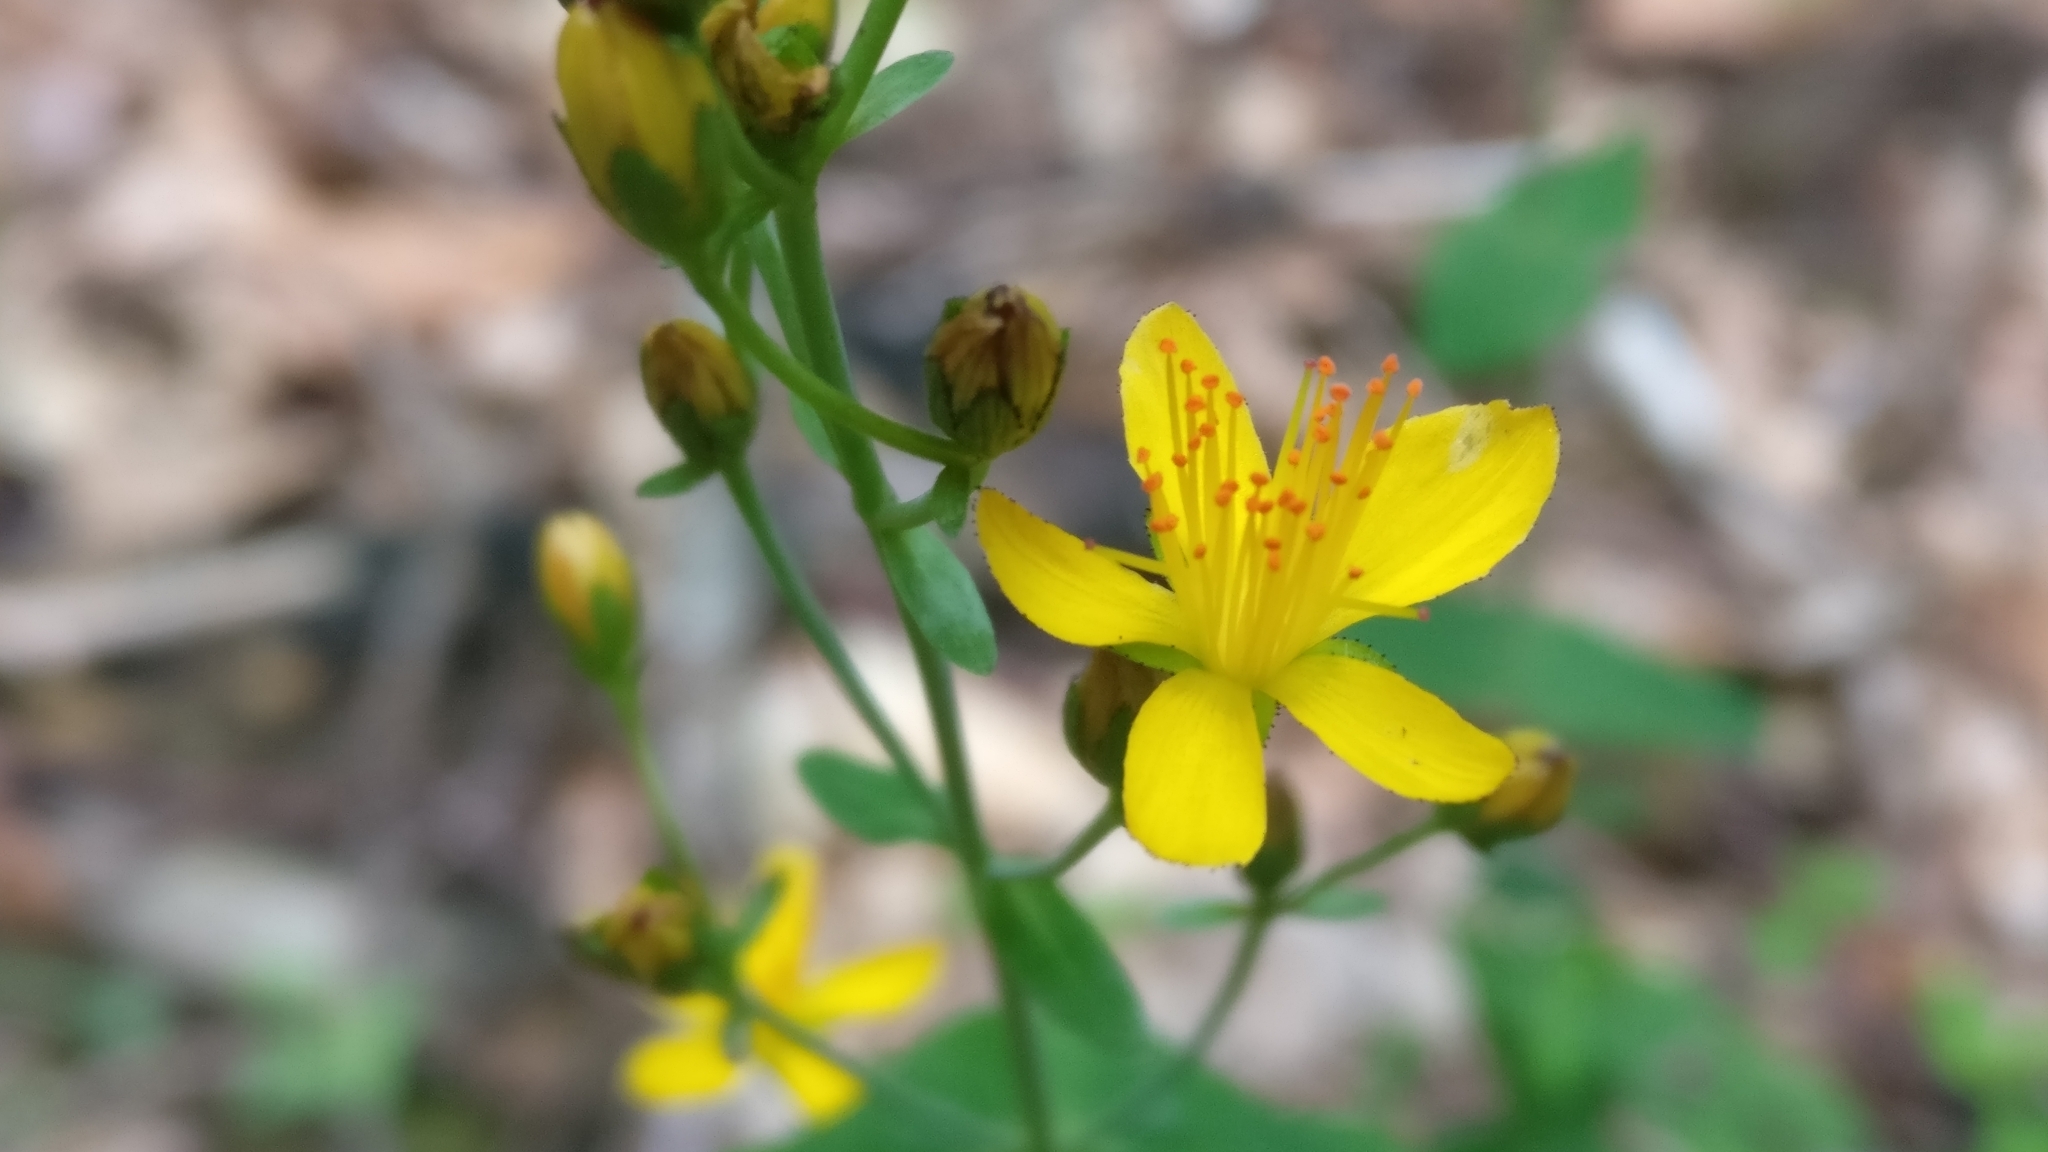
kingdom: Plantae
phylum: Tracheophyta
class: Magnoliopsida
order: Malpighiales
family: Hypericaceae
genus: Hypericum
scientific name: Hypericum pulchrum
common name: Slender st. john's-wort
